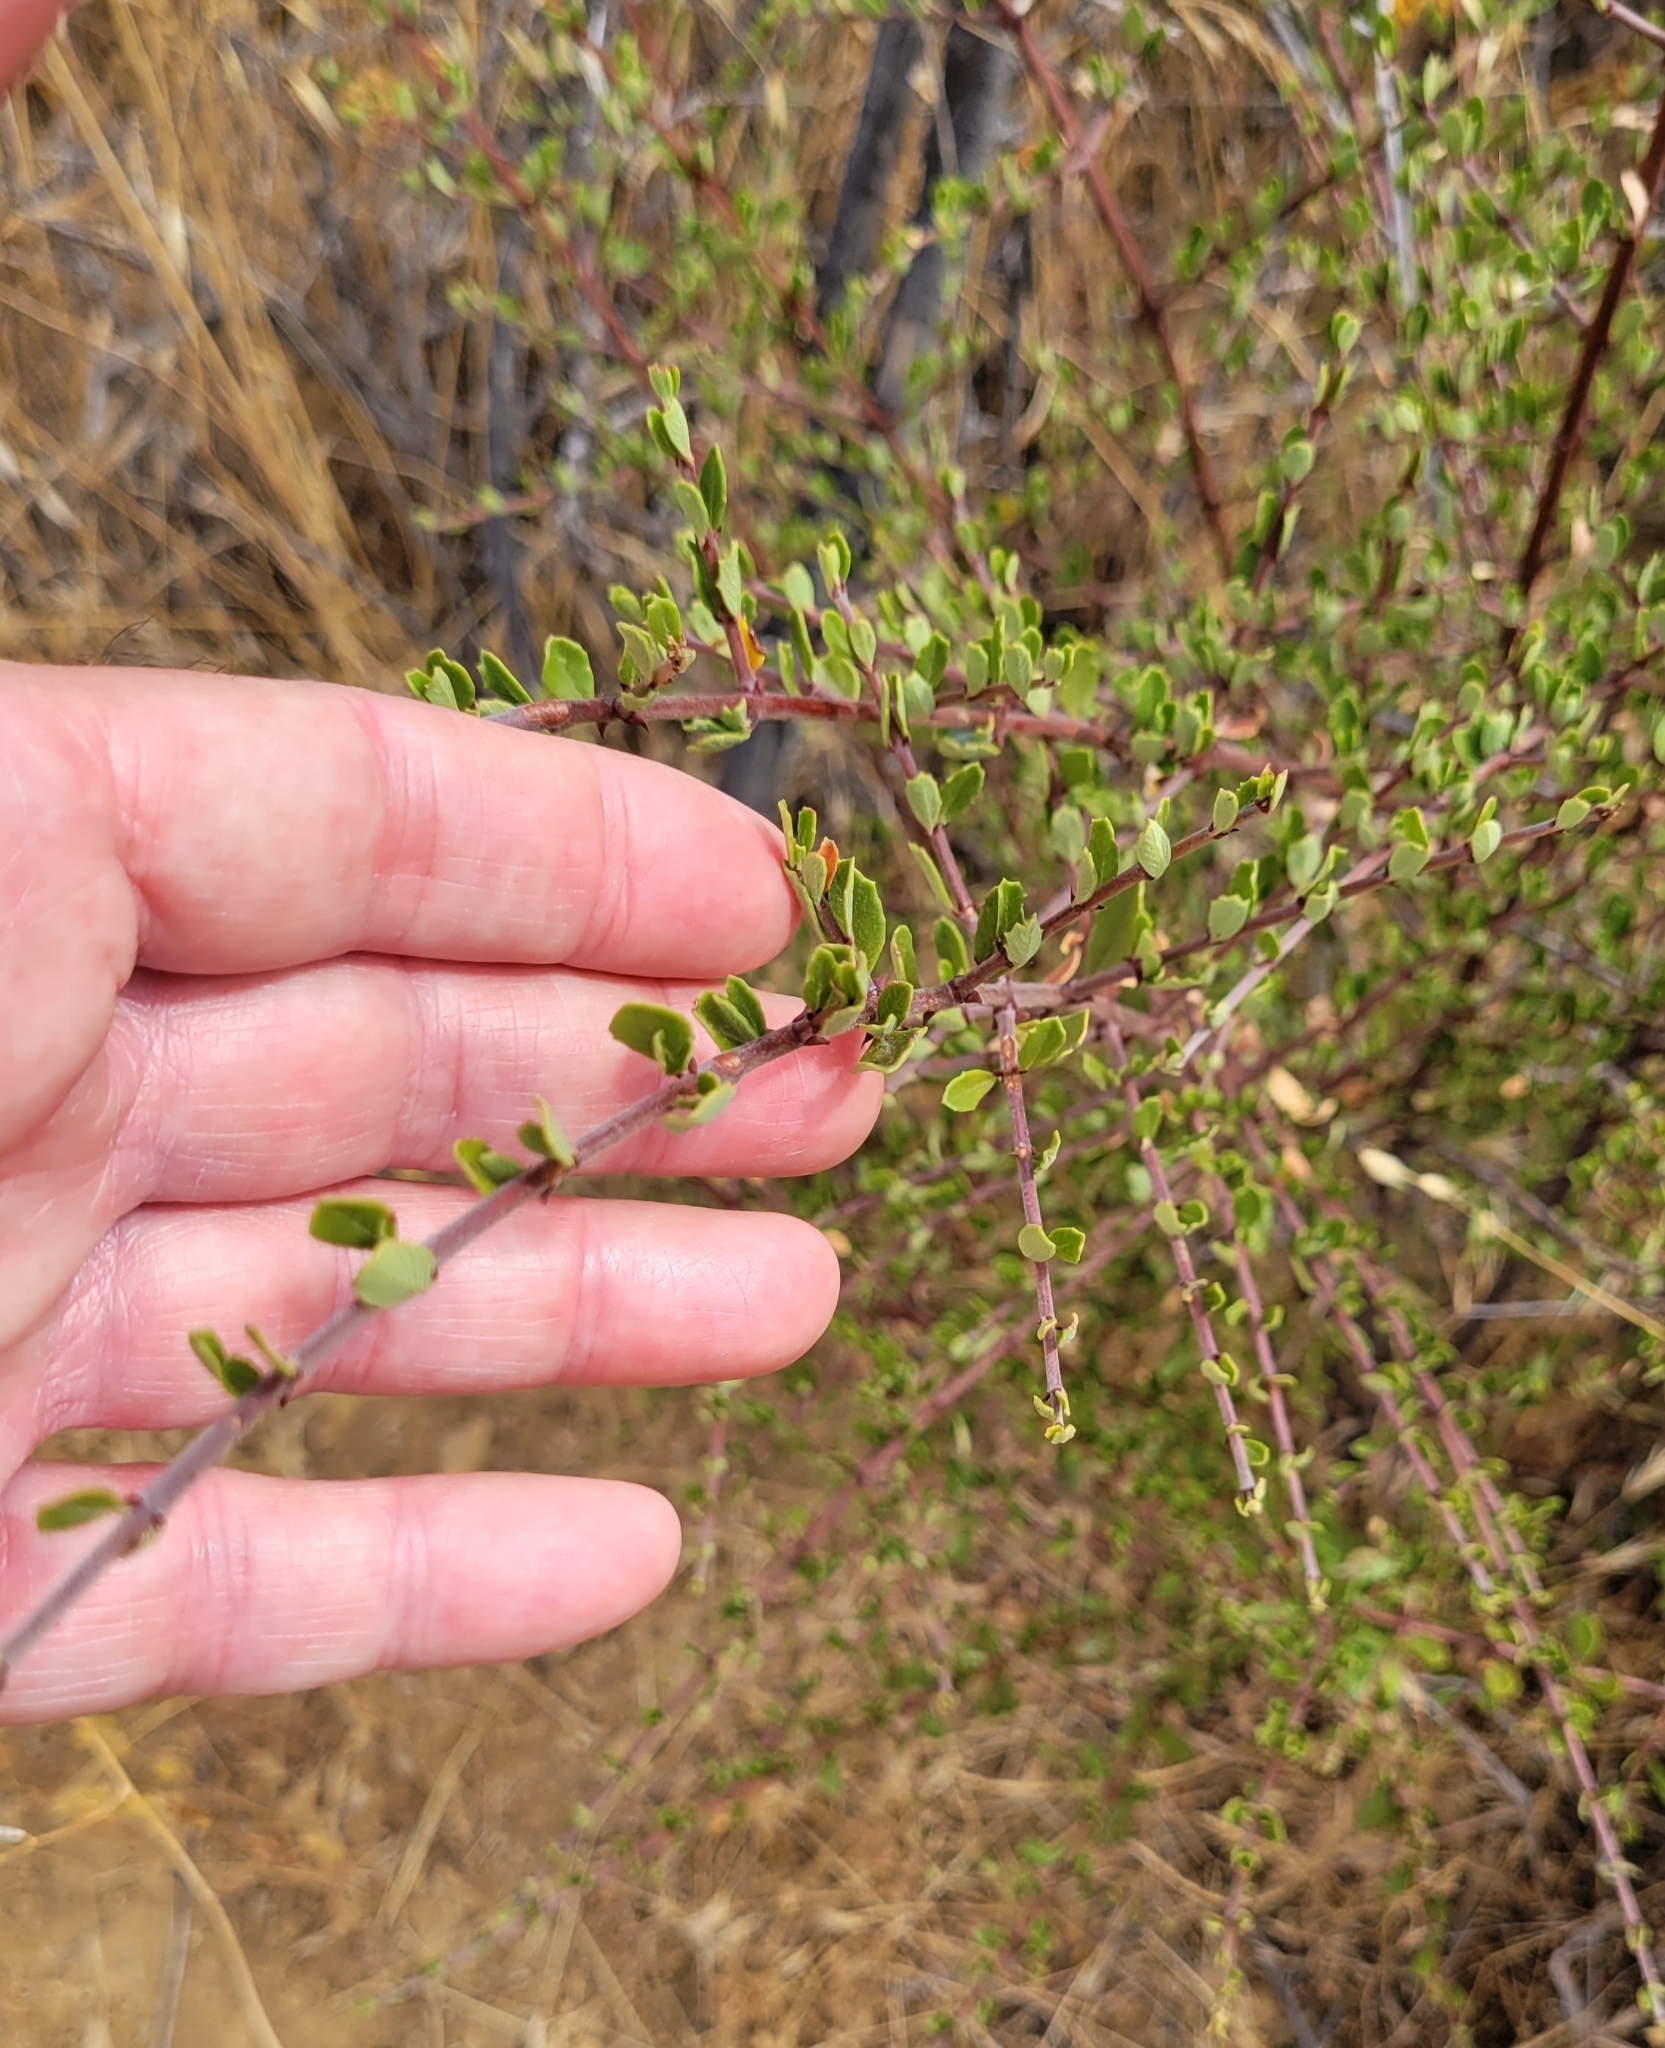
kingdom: Plantae
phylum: Tracheophyta
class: Magnoliopsida
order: Rosales
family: Rhamnaceae
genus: Endotropis
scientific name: Endotropis crocea
